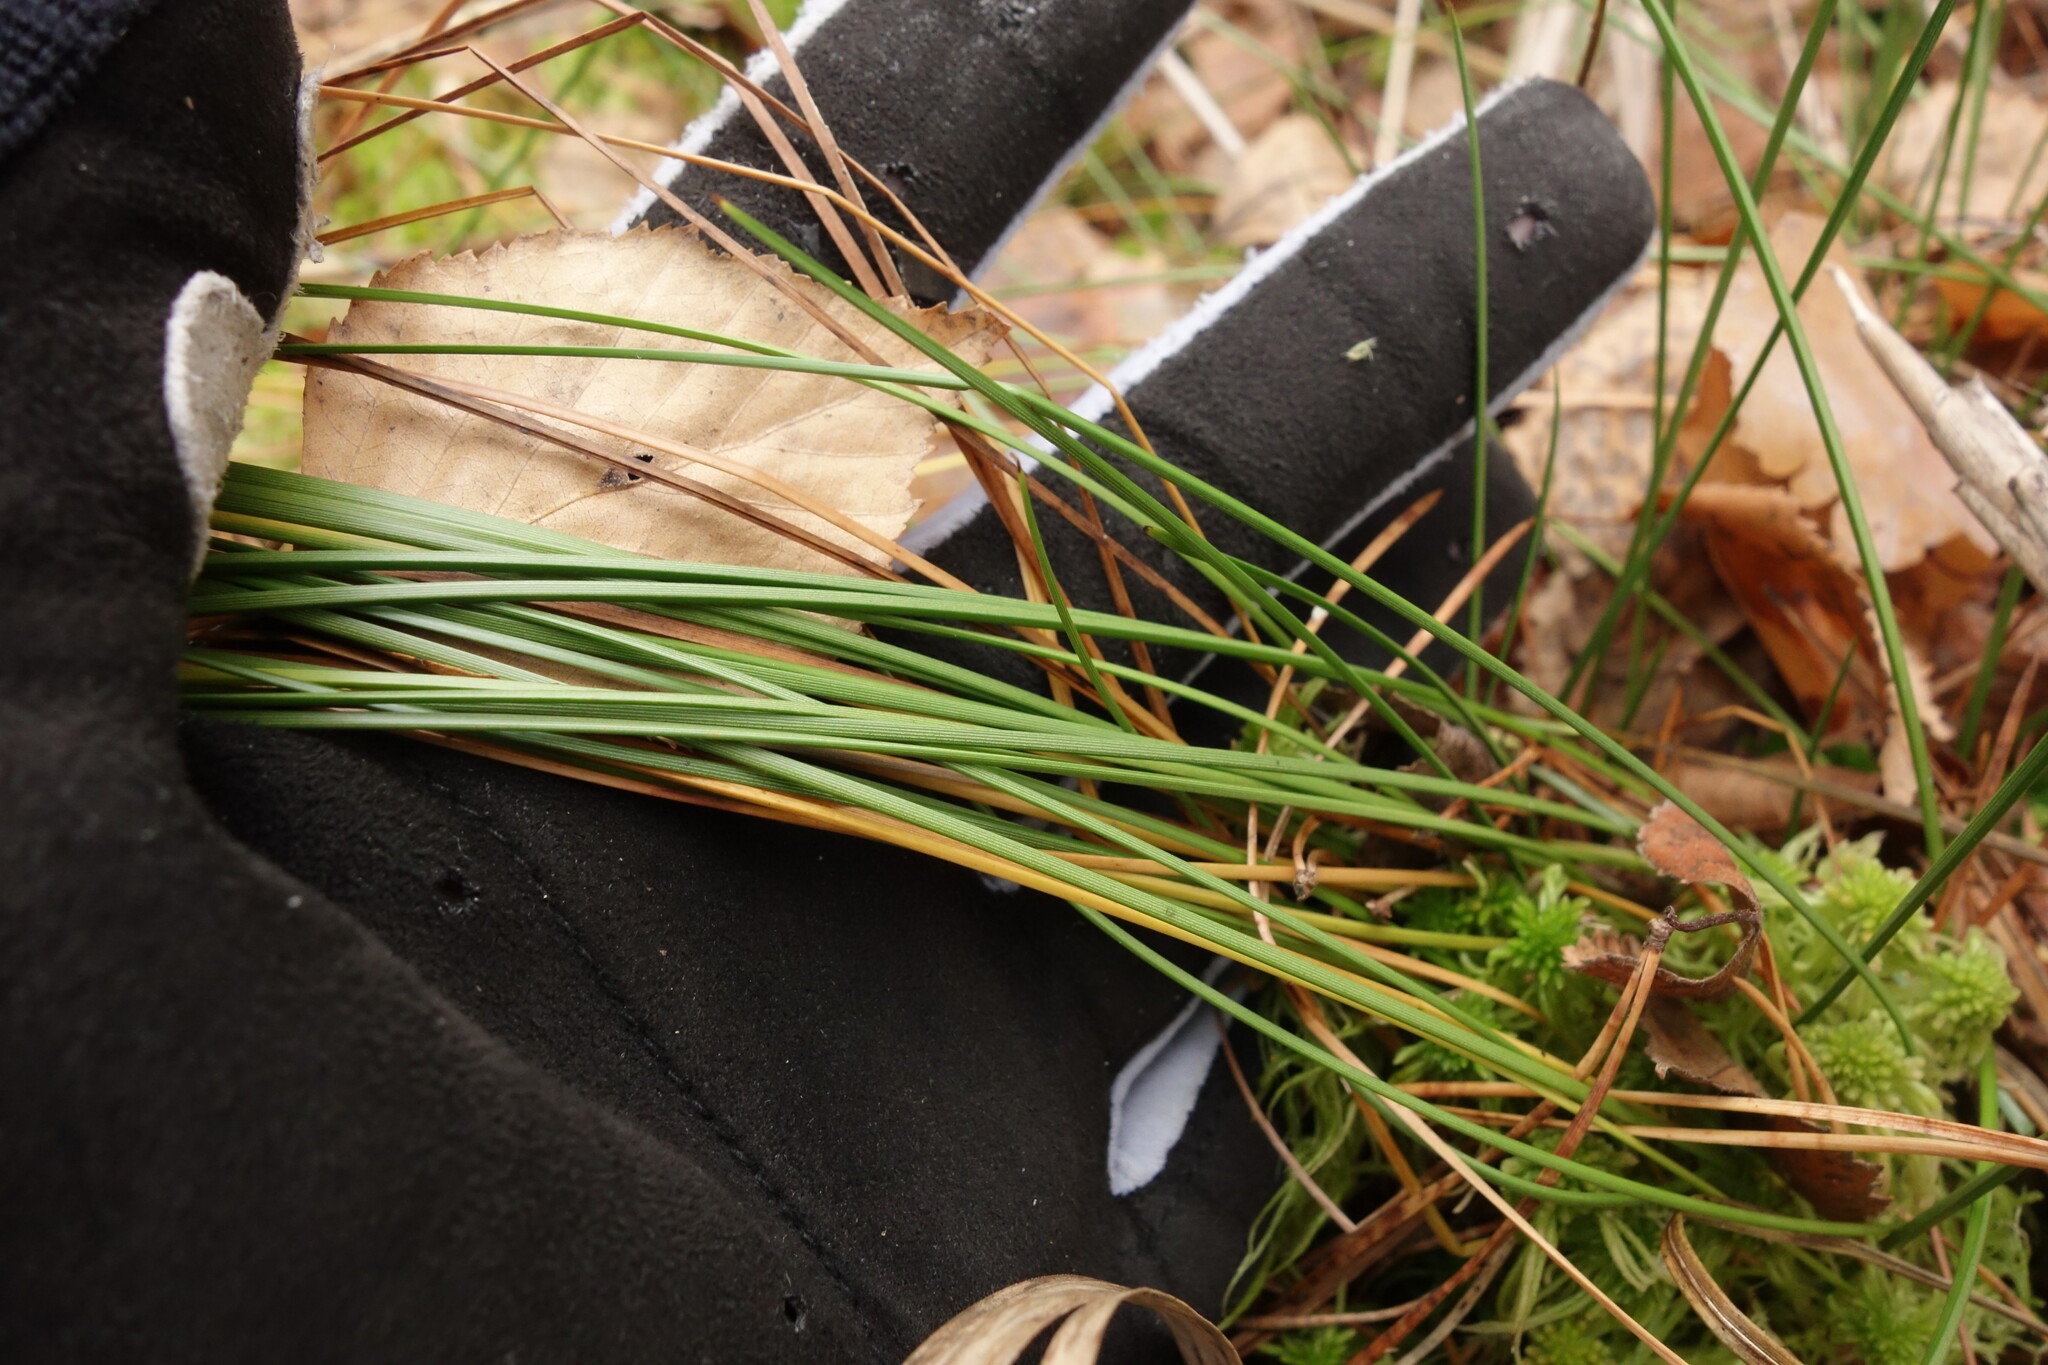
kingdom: Plantae
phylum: Tracheophyta
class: Liliopsida
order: Poales
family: Cyperaceae
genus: Eriophorum
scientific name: Eriophorum vaginatum
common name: Hare's-tail cottongrass
